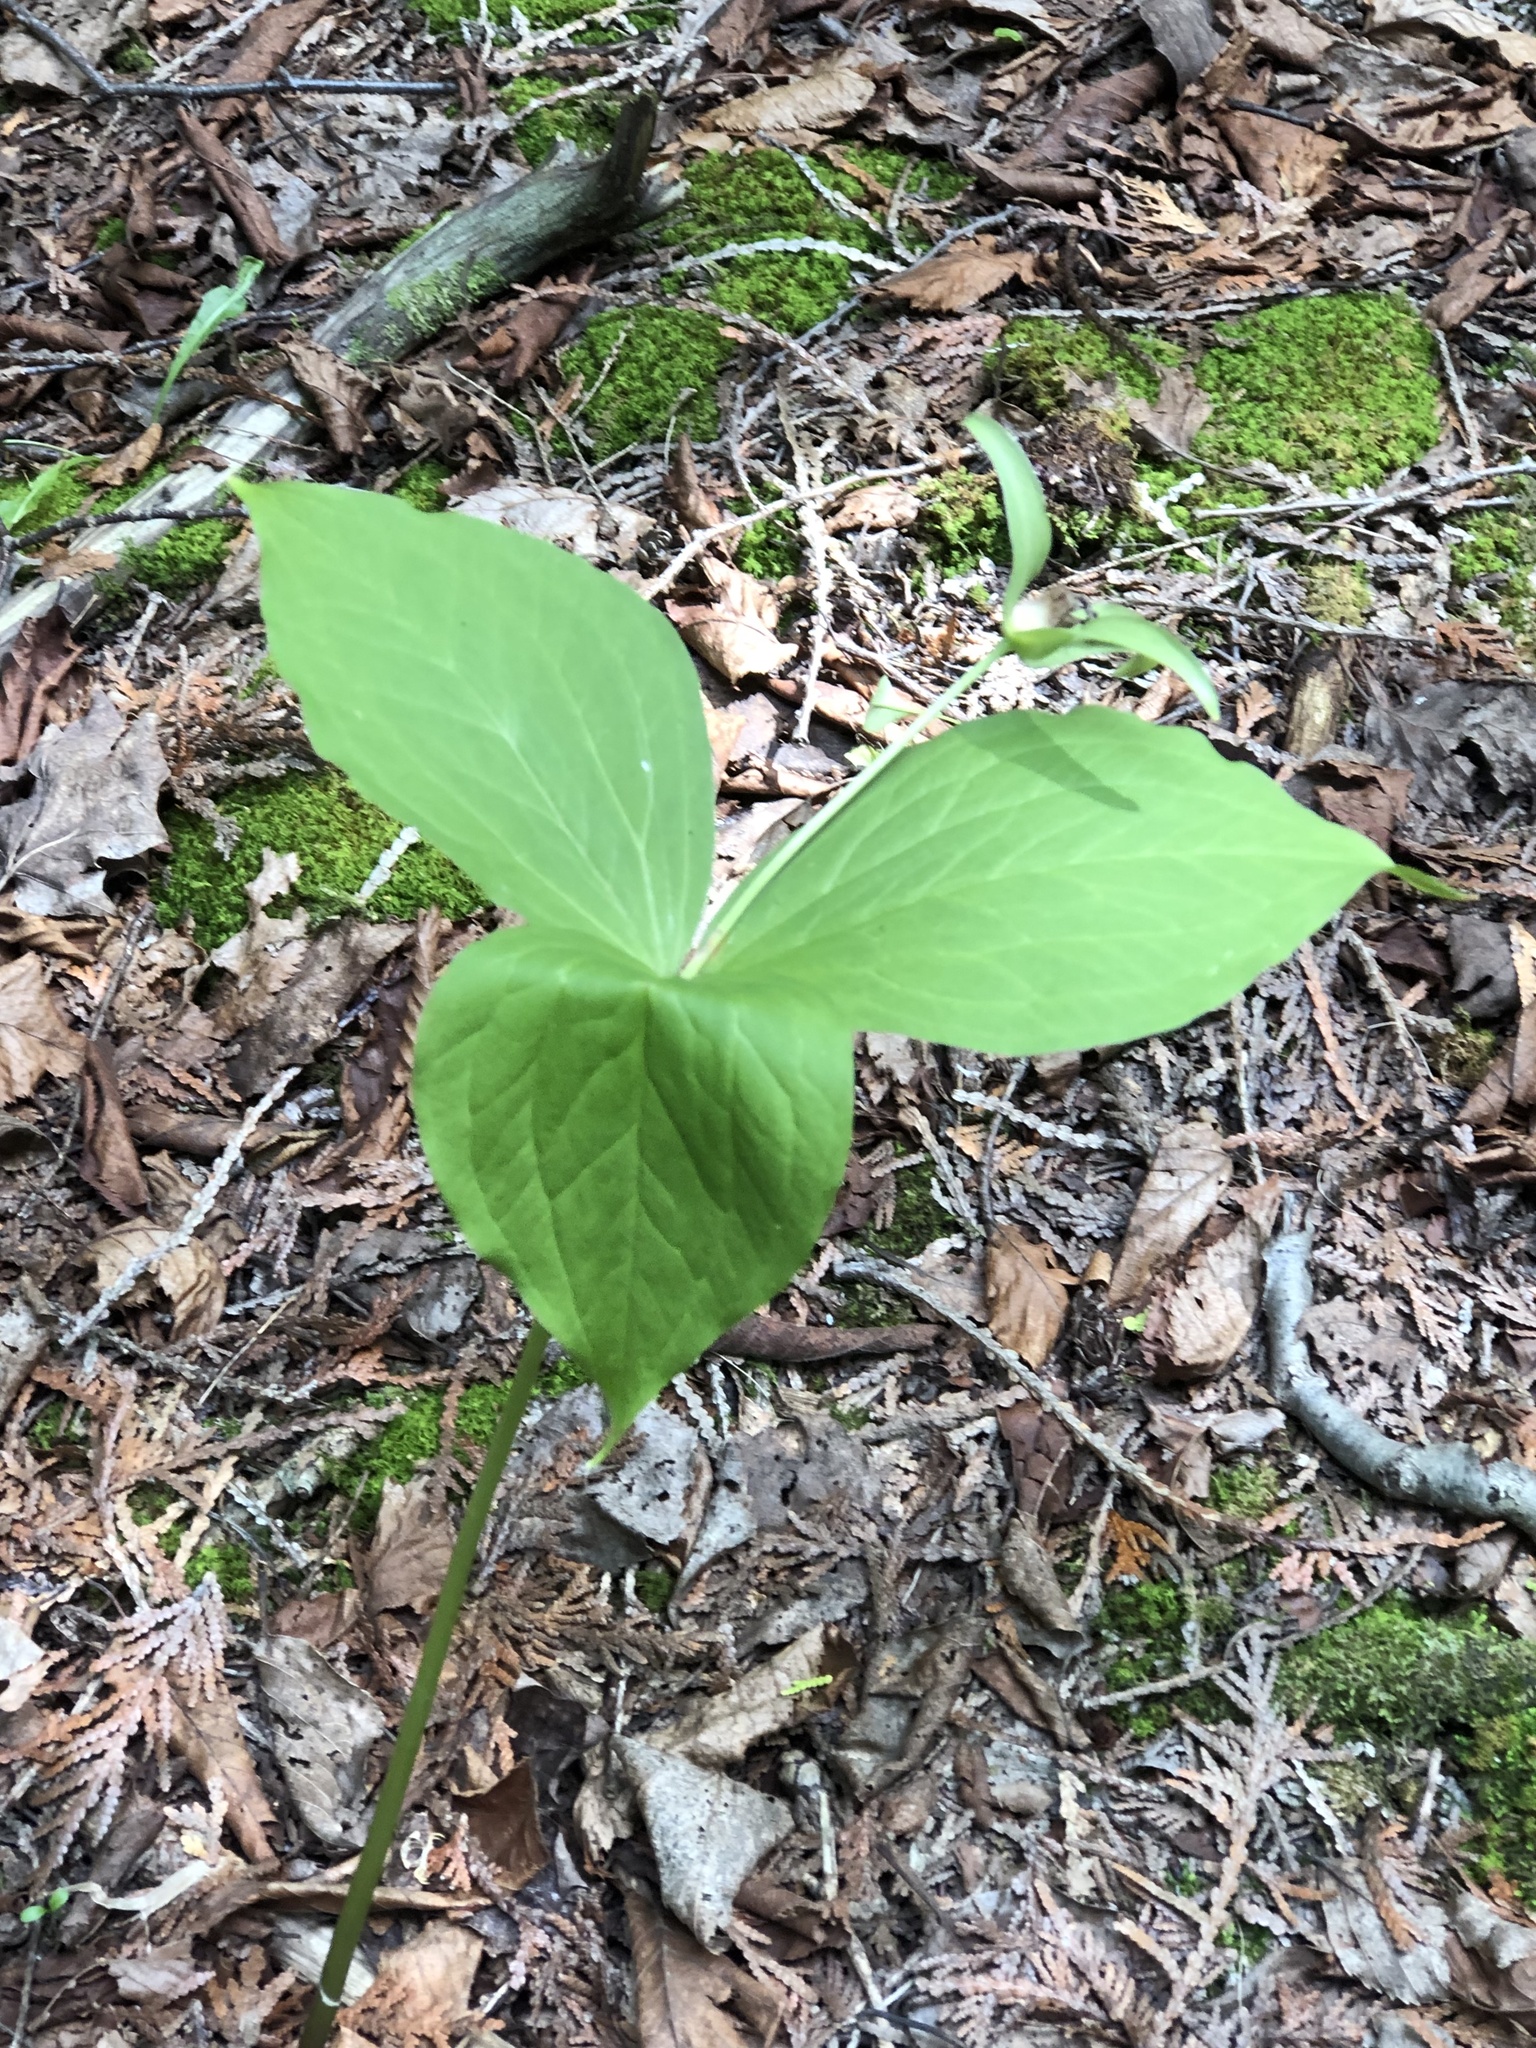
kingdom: Plantae
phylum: Tracheophyta
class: Liliopsida
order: Liliales
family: Melanthiaceae
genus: Trillium
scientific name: Trillium grandiflorum
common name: Great white trillium
